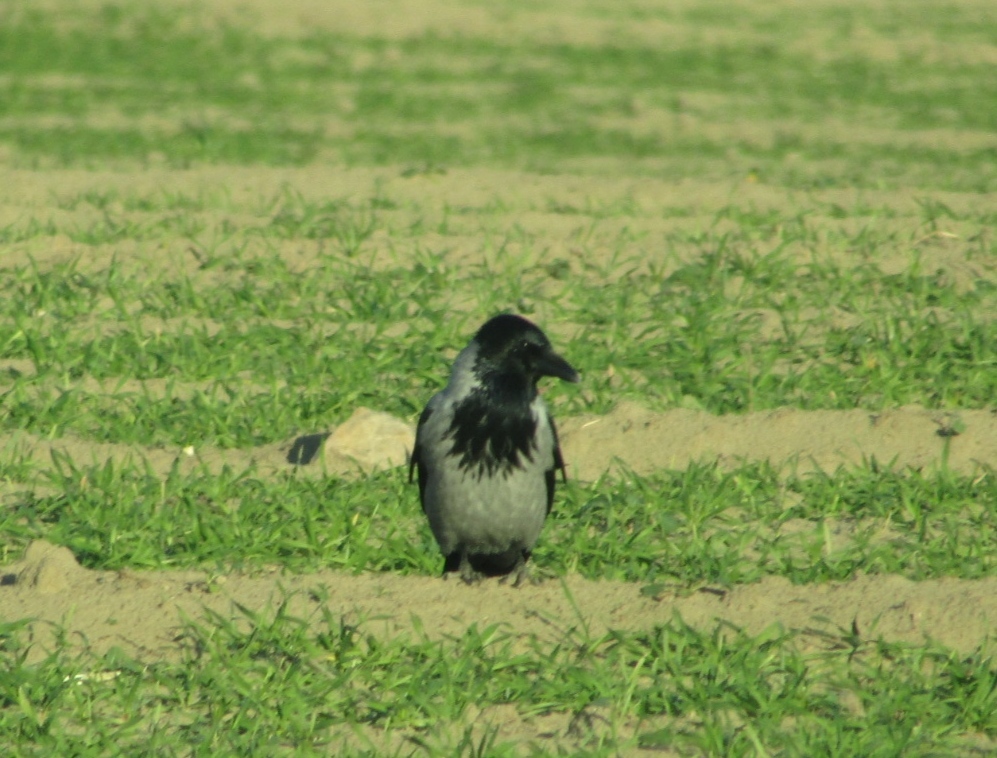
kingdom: Animalia
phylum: Chordata
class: Aves
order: Passeriformes
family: Corvidae
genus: Corvus
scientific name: Corvus cornix
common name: Hooded crow
